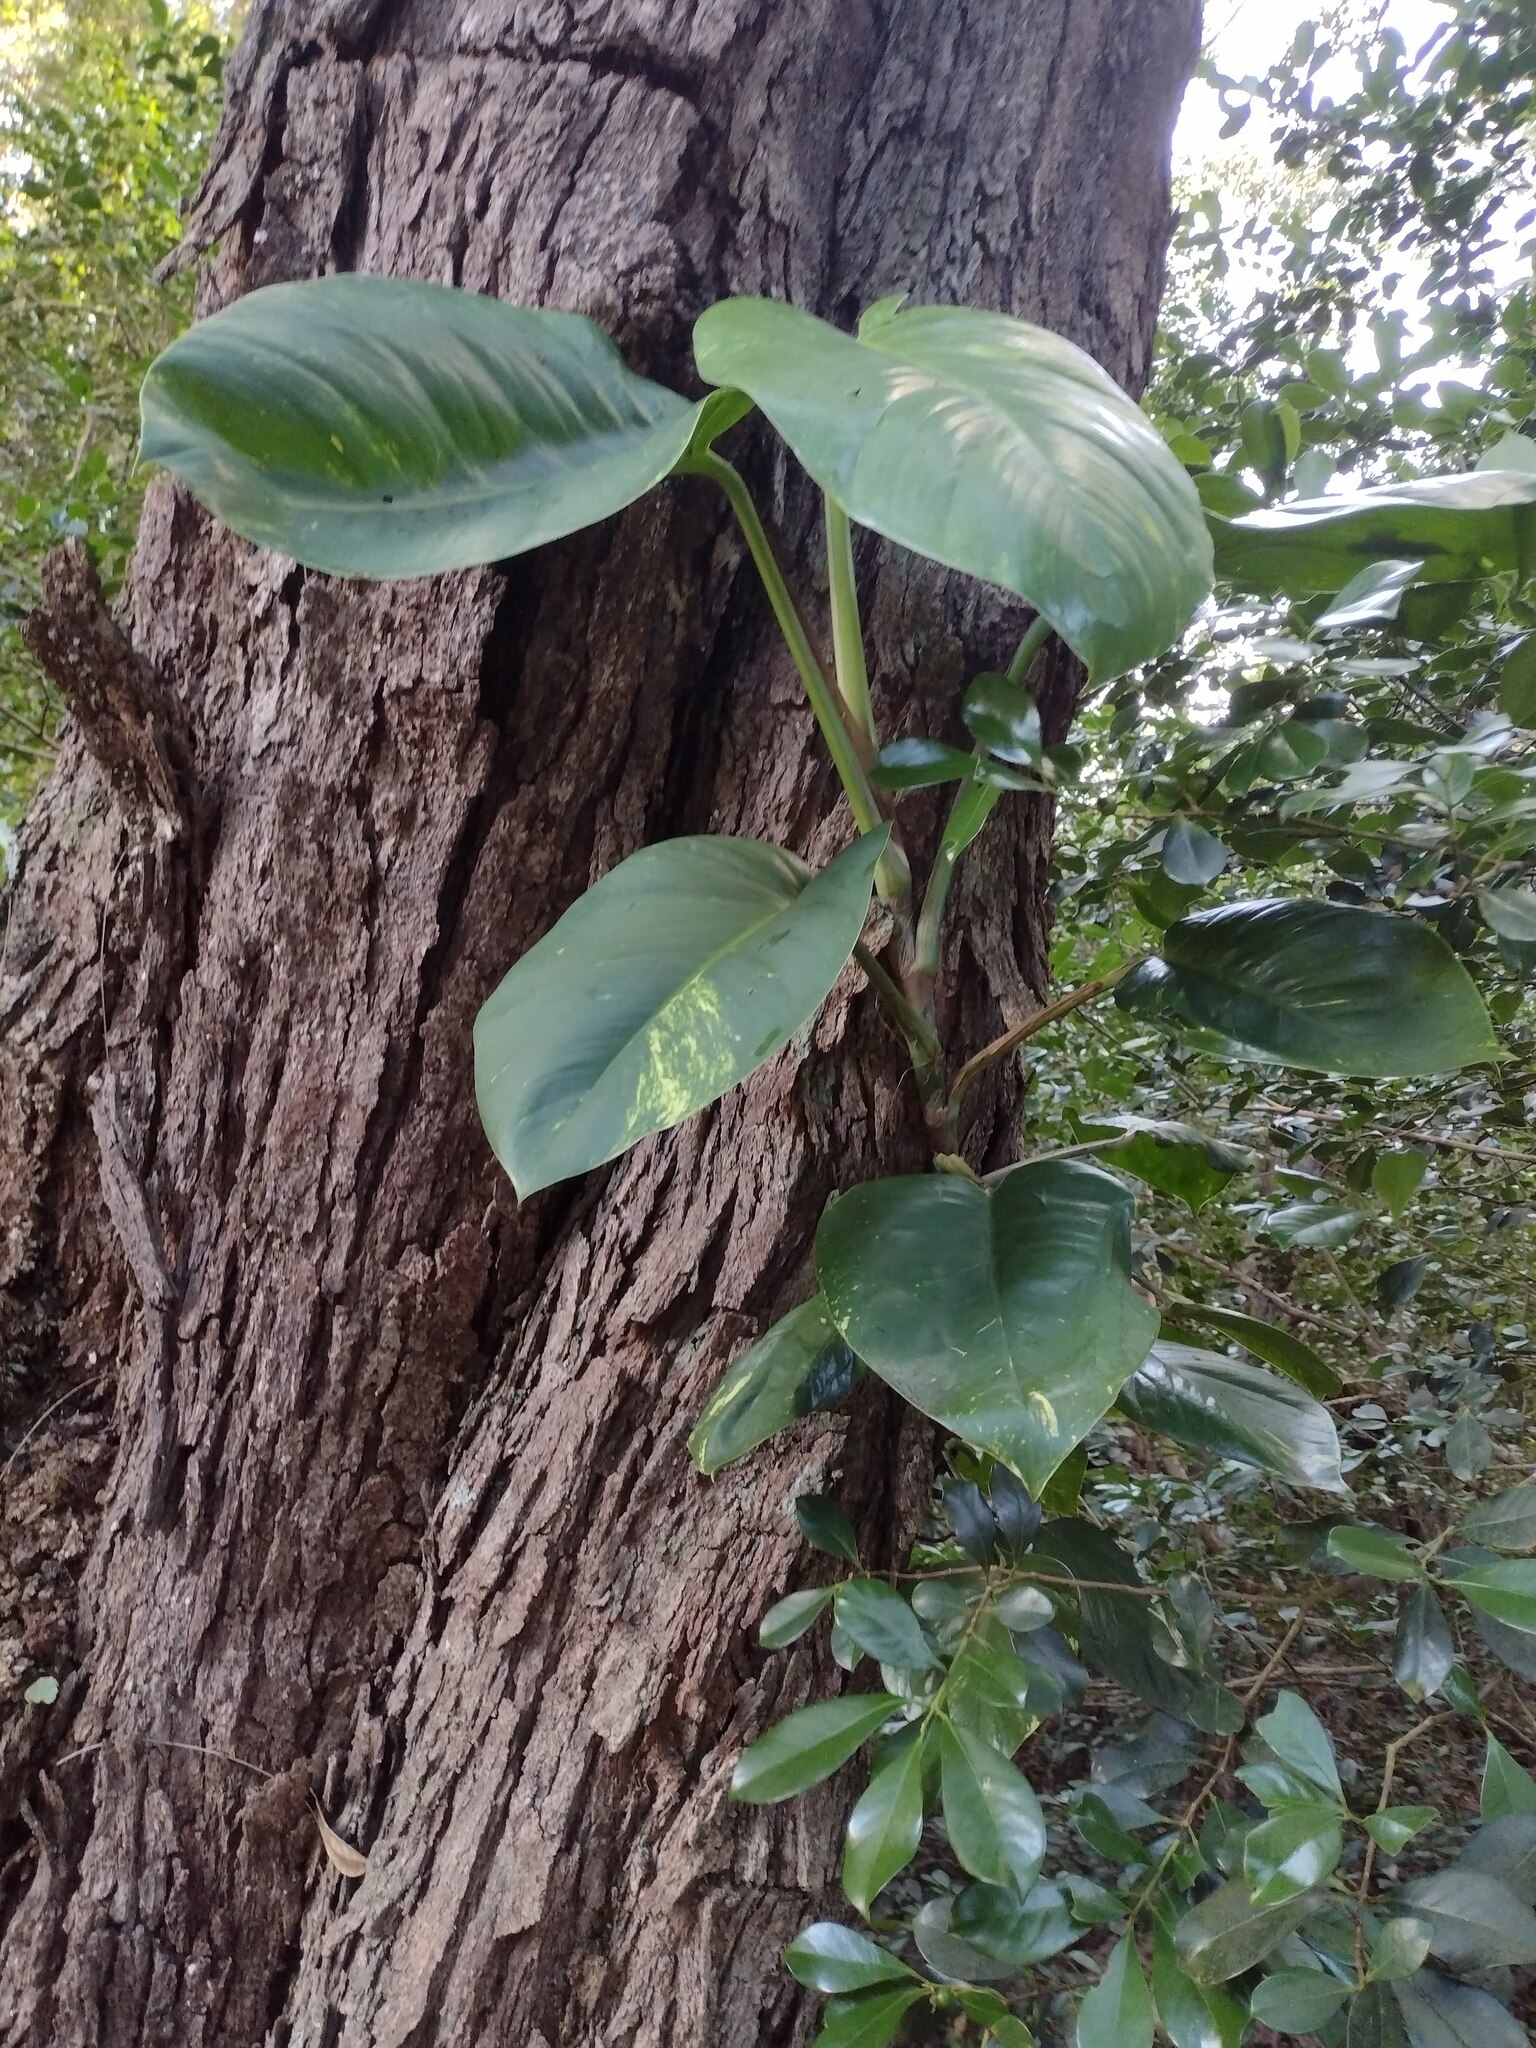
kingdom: Plantae
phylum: Tracheophyta
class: Liliopsida
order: Alismatales
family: Araceae
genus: Epipremnum
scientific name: Epipremnum aureum
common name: Golden hunter's-robe
